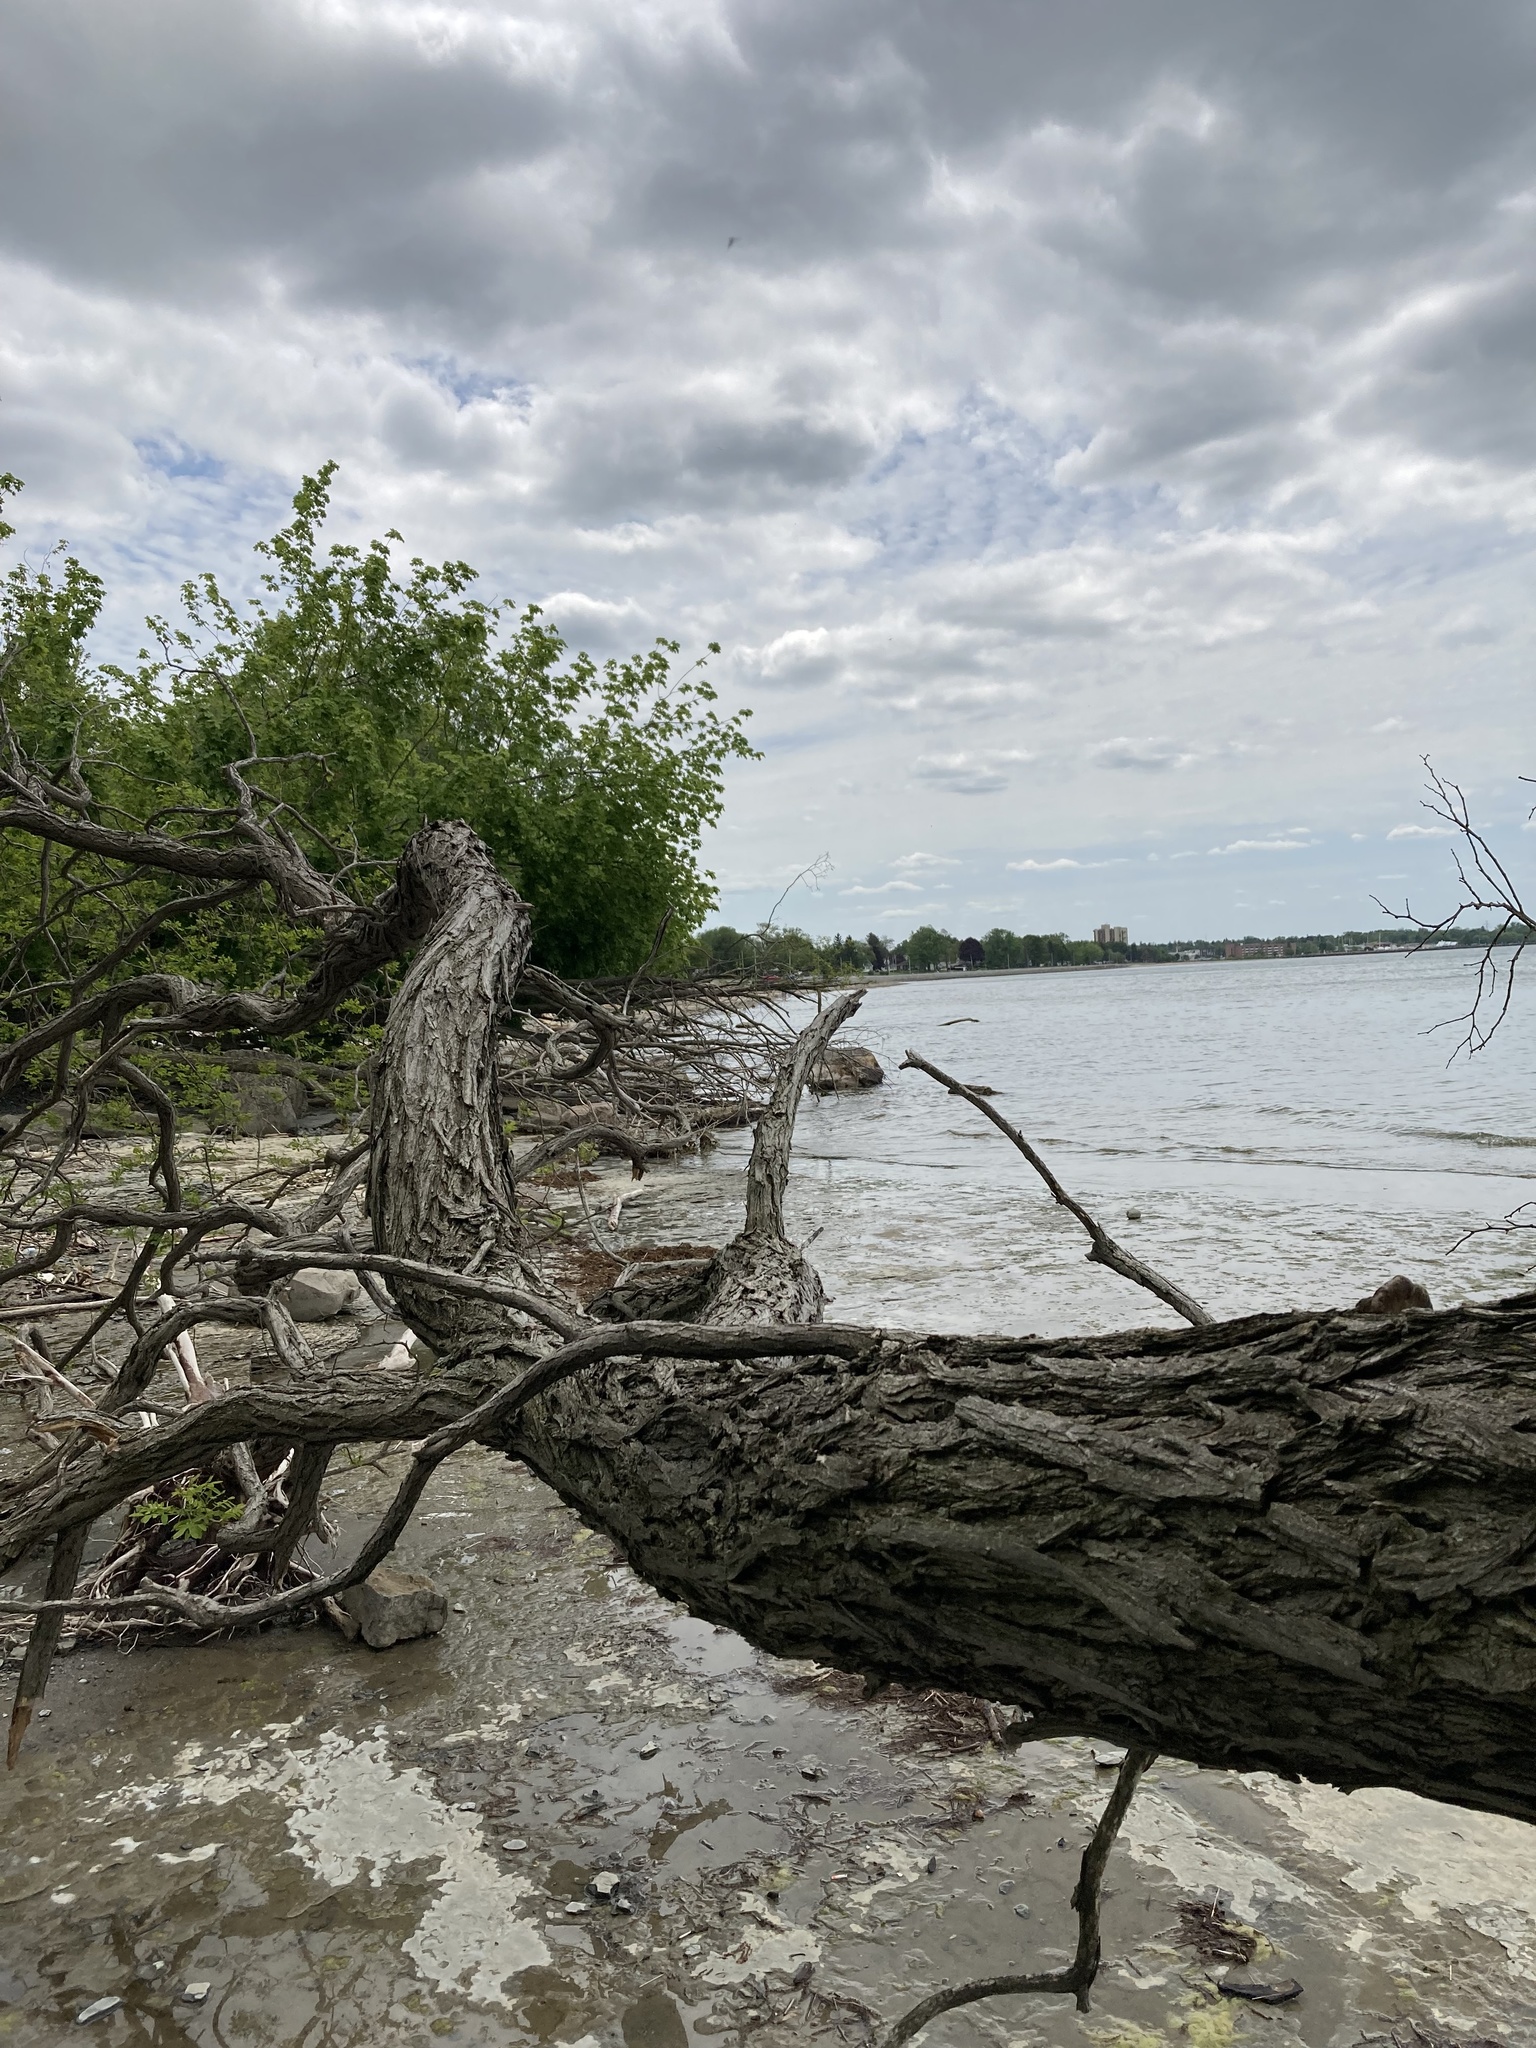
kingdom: Plantae
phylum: Tracheophyta
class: Magnoliopsida
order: Fabales
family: Fabaceae
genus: Robinia
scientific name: Robinia pseudoacacia
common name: Black locust
